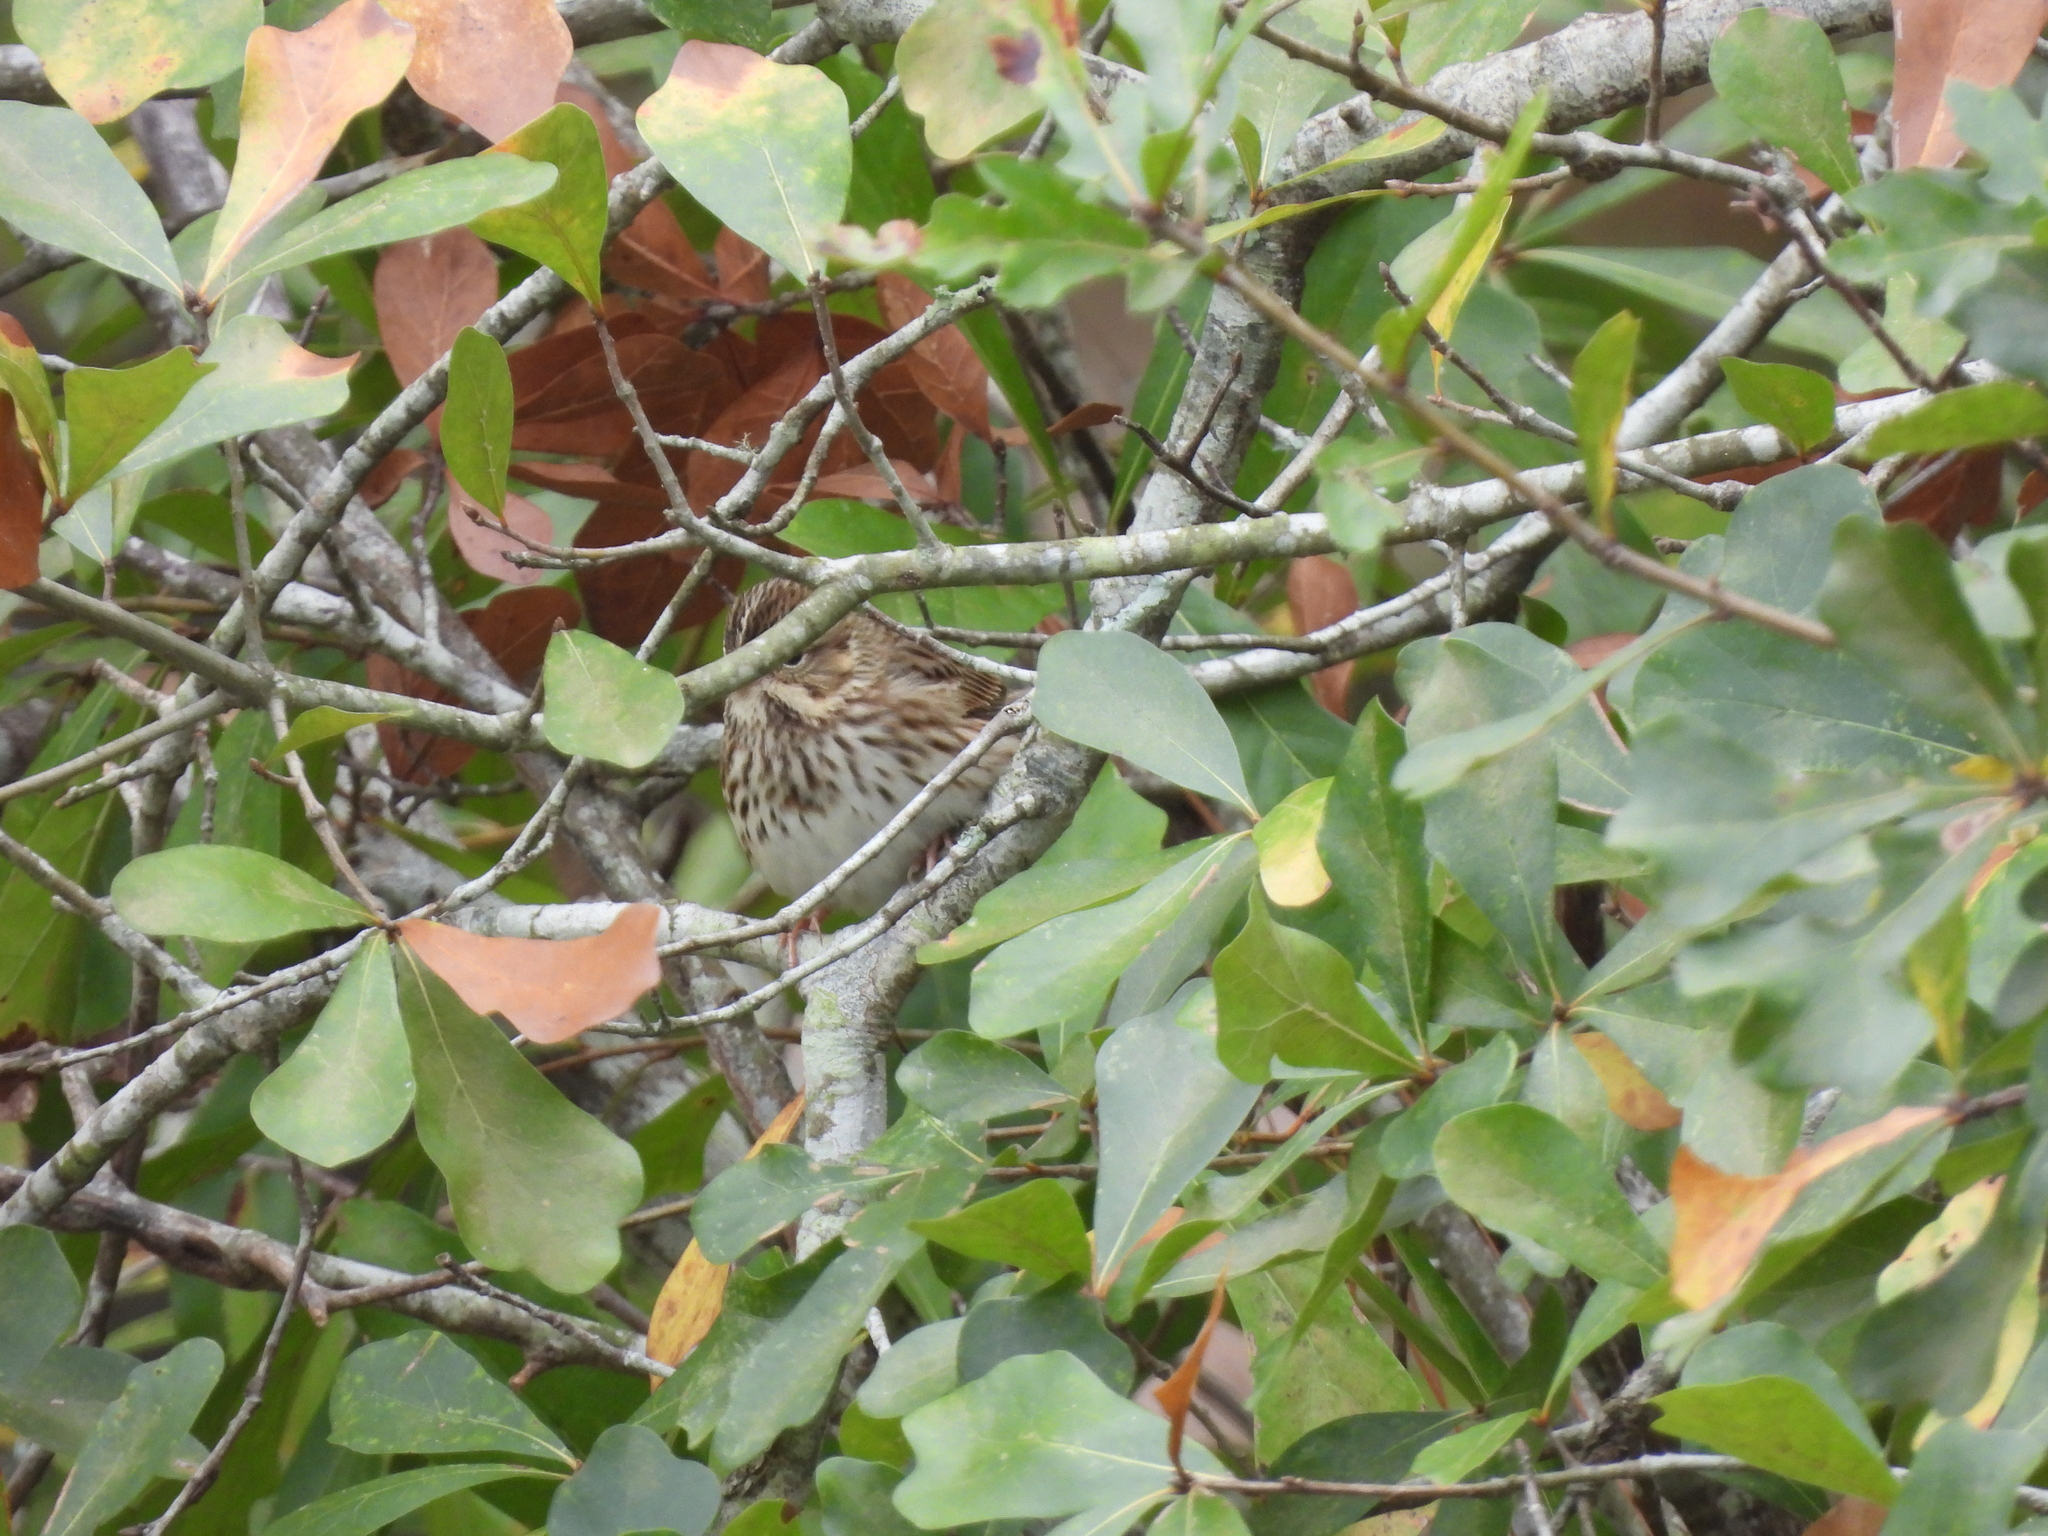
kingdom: Animalia
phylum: Chordata
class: Aves
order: Passeriformes
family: Passerellidae
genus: Passerculus
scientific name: Passerculus sandwichensis
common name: Savannah sparrow
